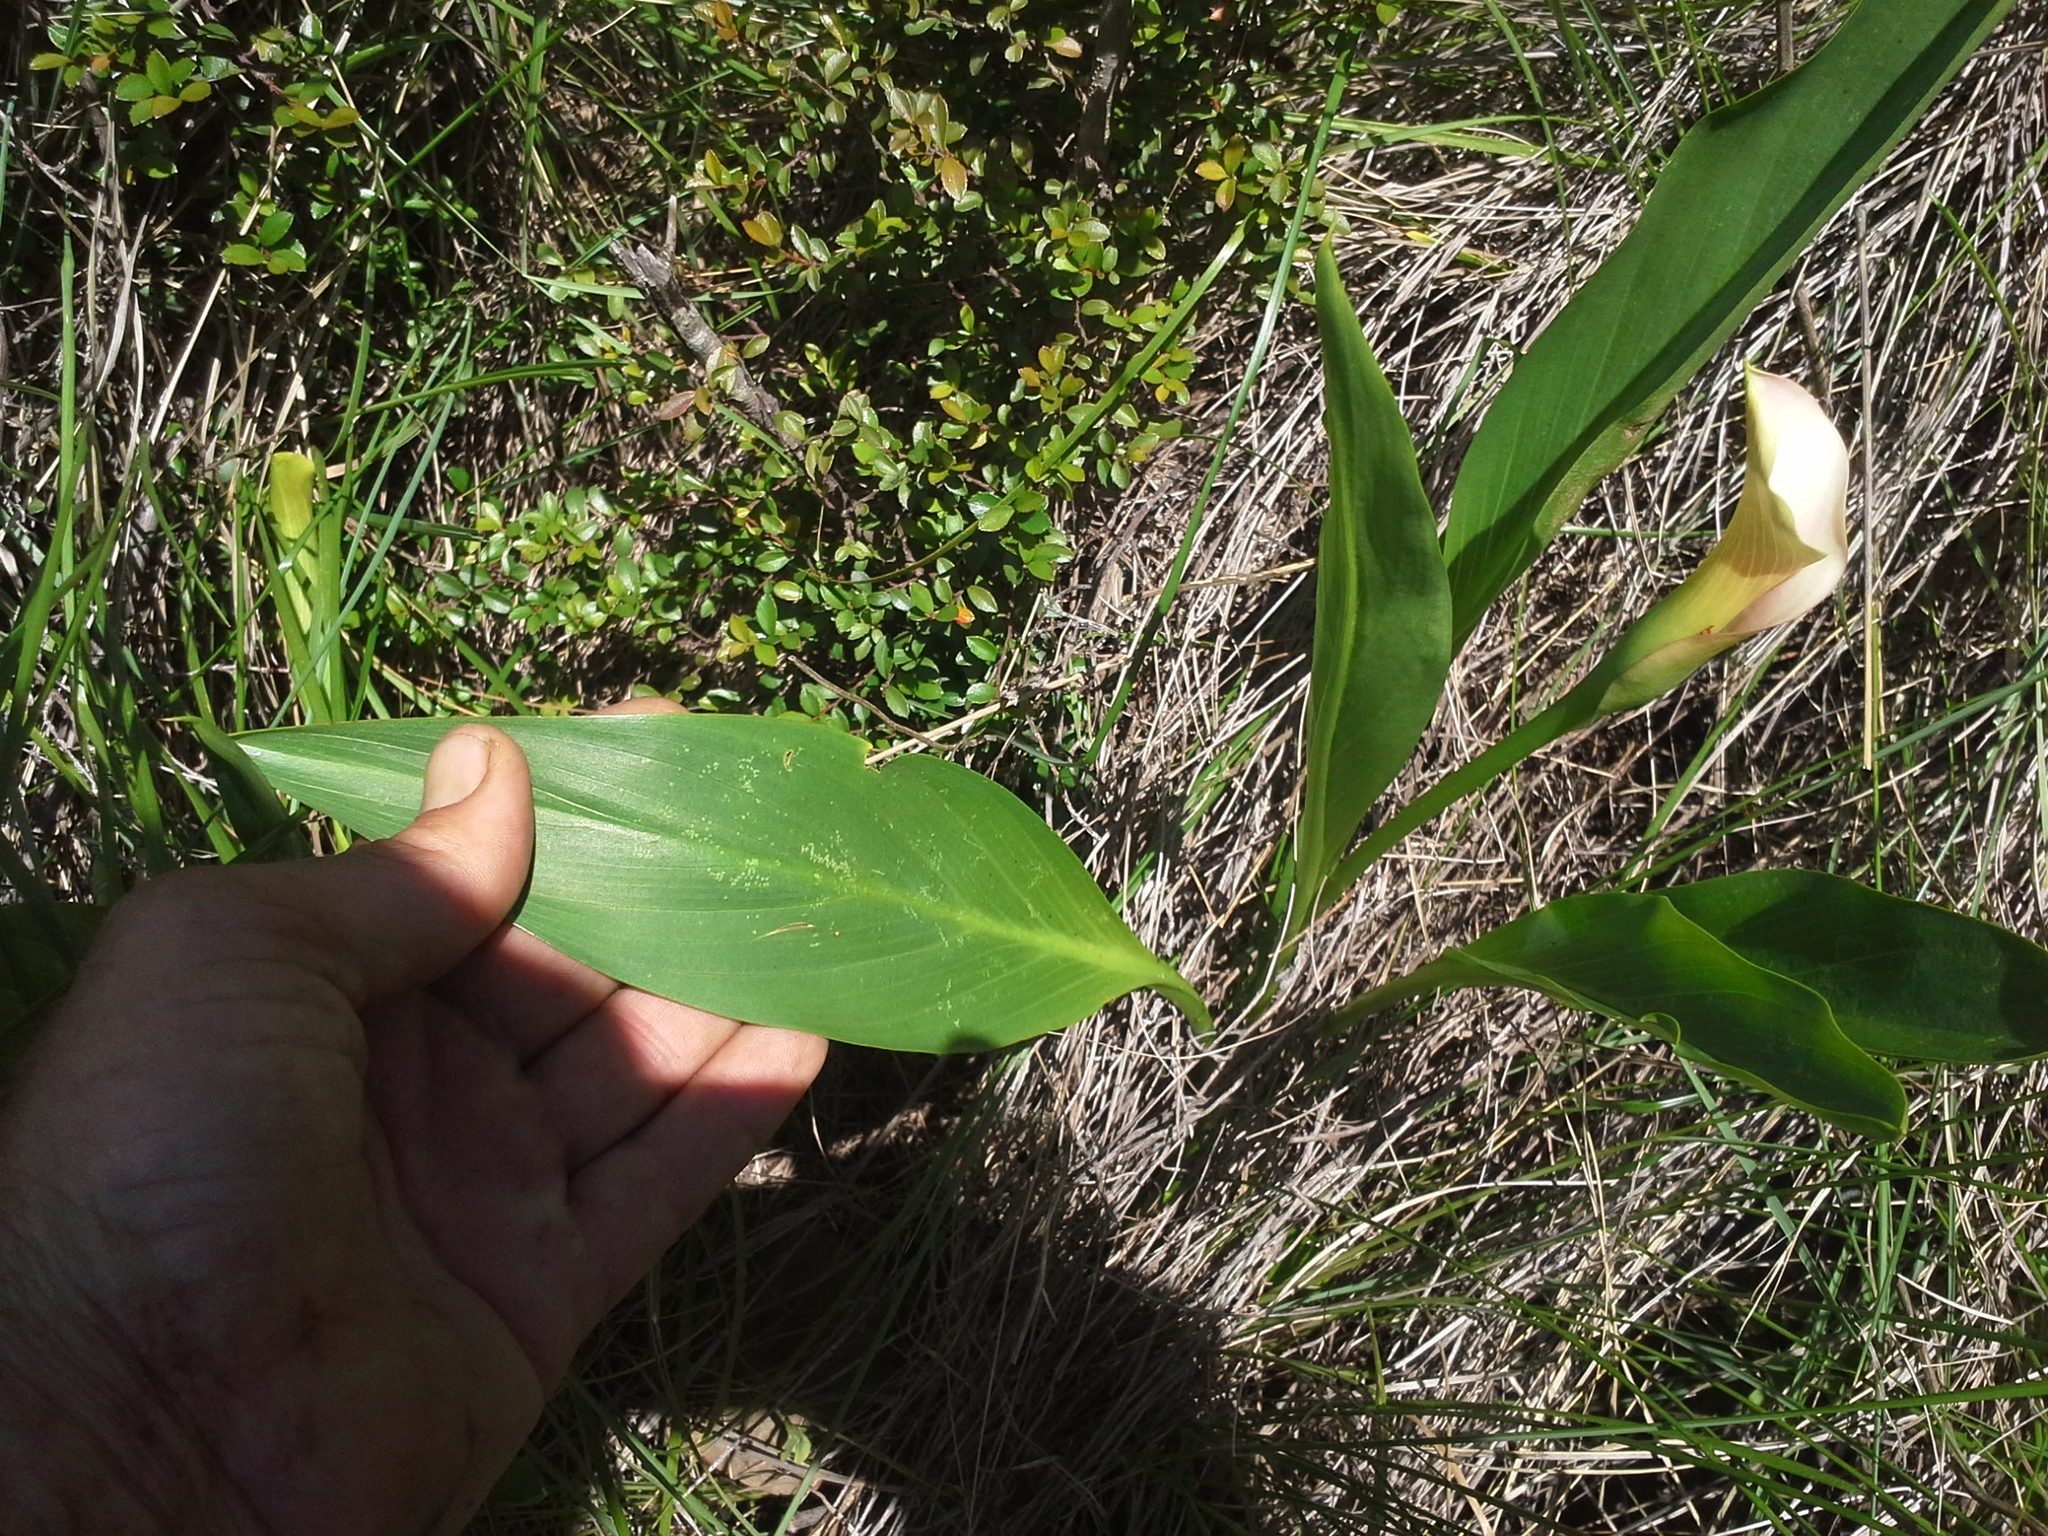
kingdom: Plantae
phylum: Tracheophyta
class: Liliopsida
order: Alismatales
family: Araceae
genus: Zantedeschia
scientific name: Zantedeschia rehmannii
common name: Red calla
